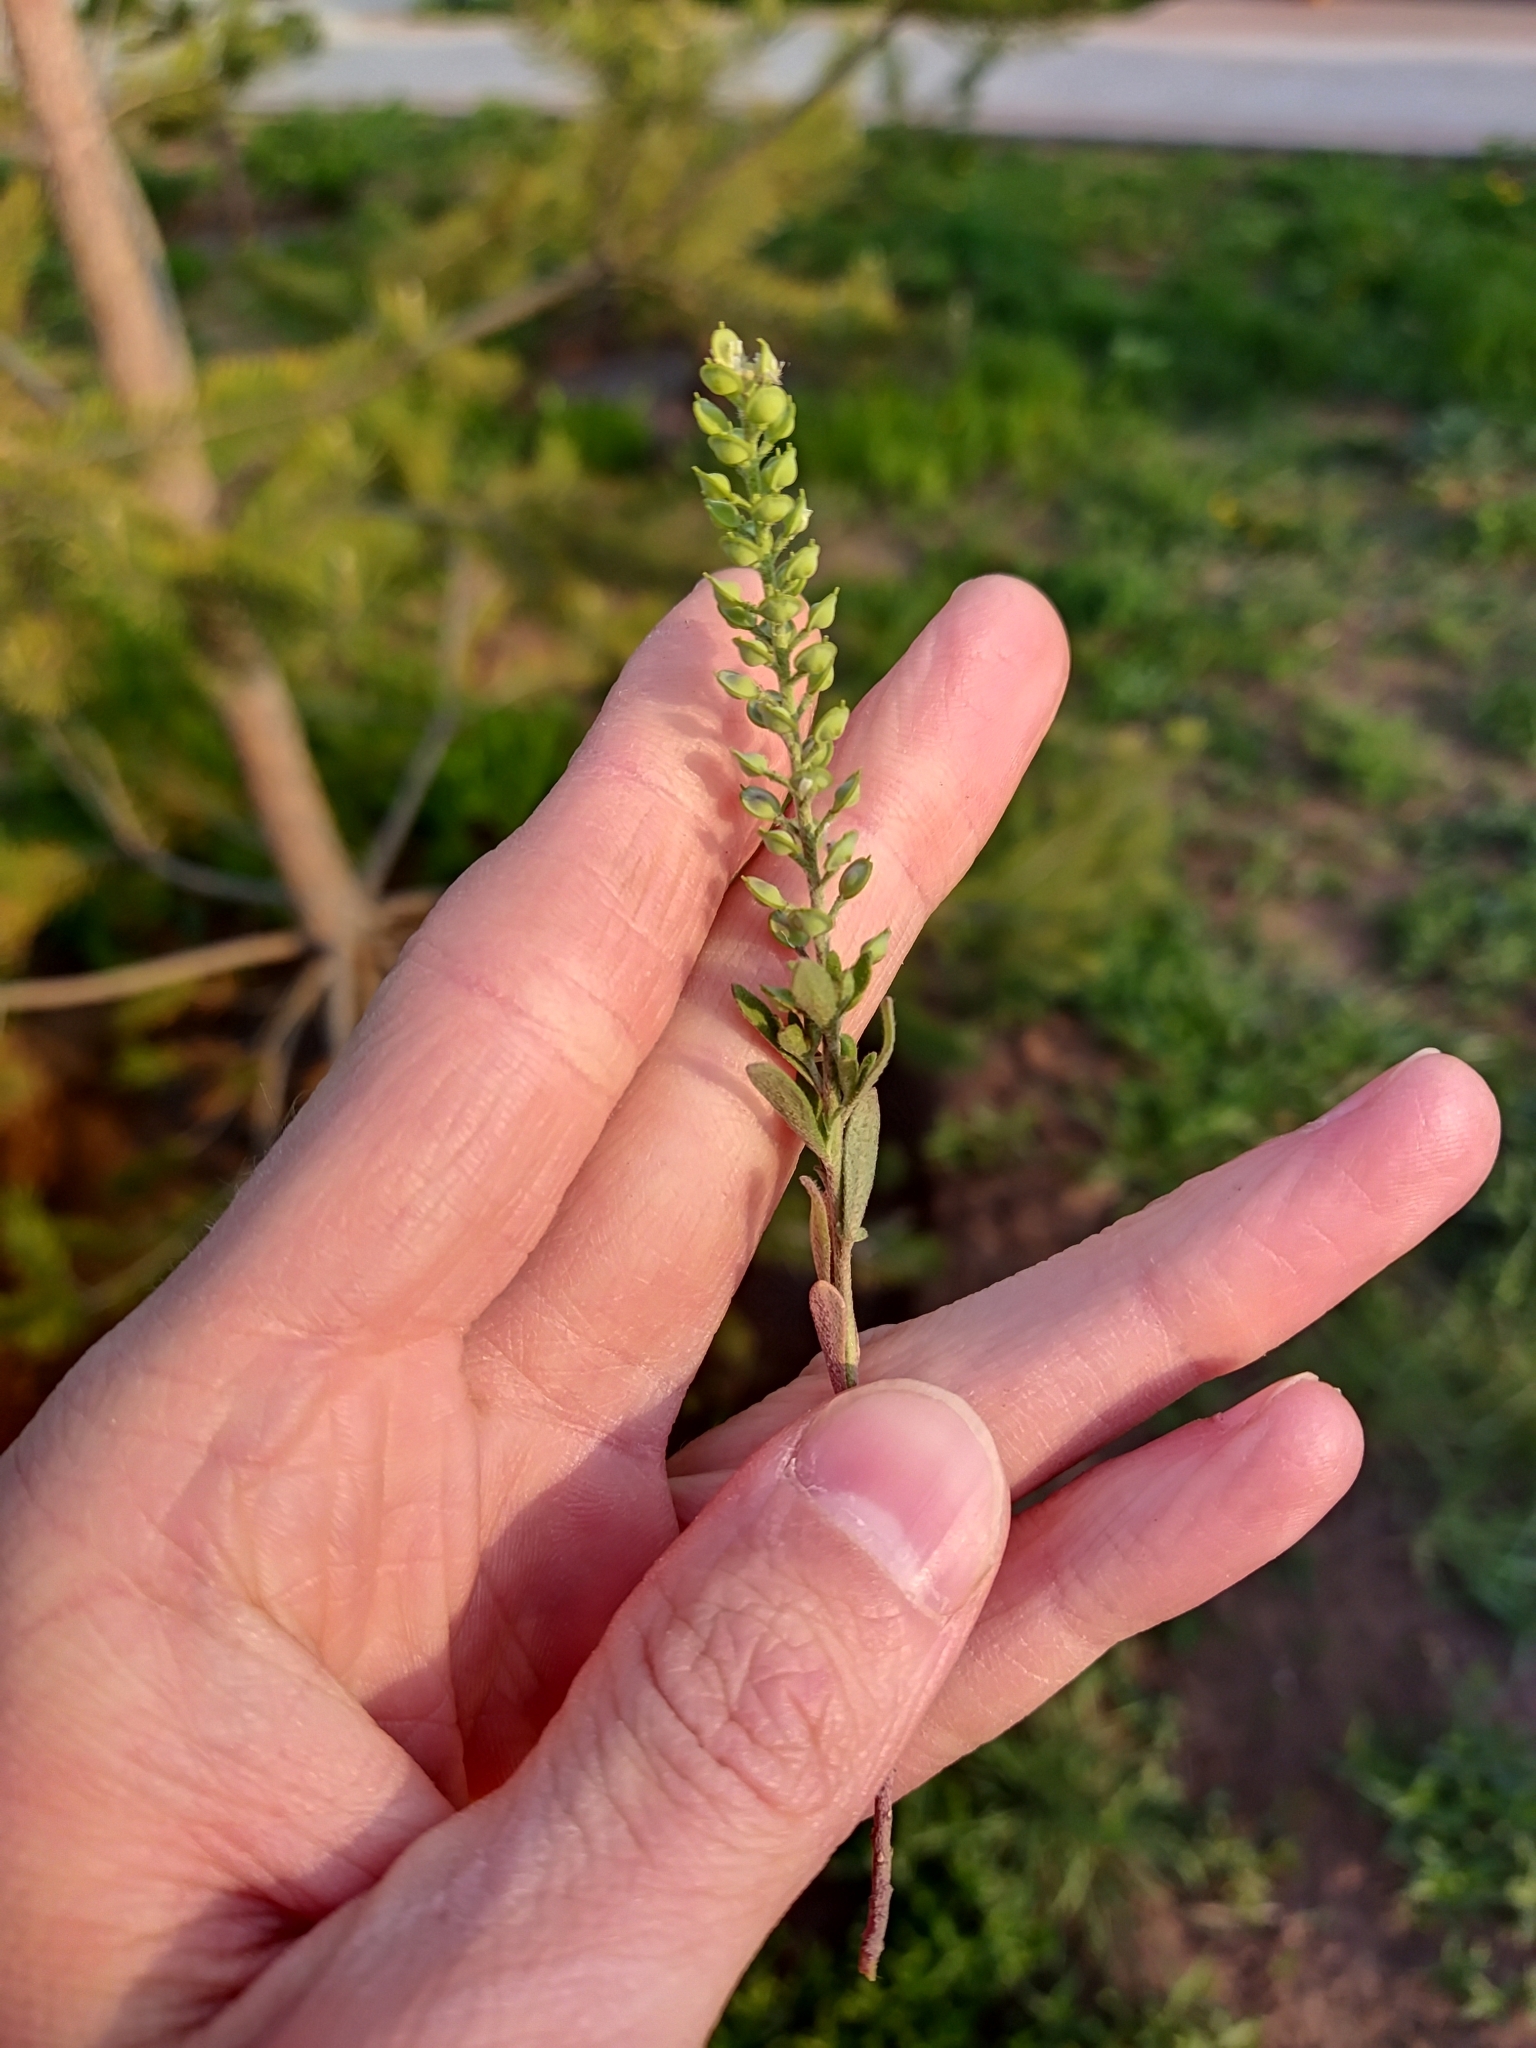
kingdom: Plantae
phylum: Tracheophyta
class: Magnoliopsida
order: Brassicales
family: Brassicaceae
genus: Alyssum
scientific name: Alyssum turkestanicum
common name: Desert alyssum
